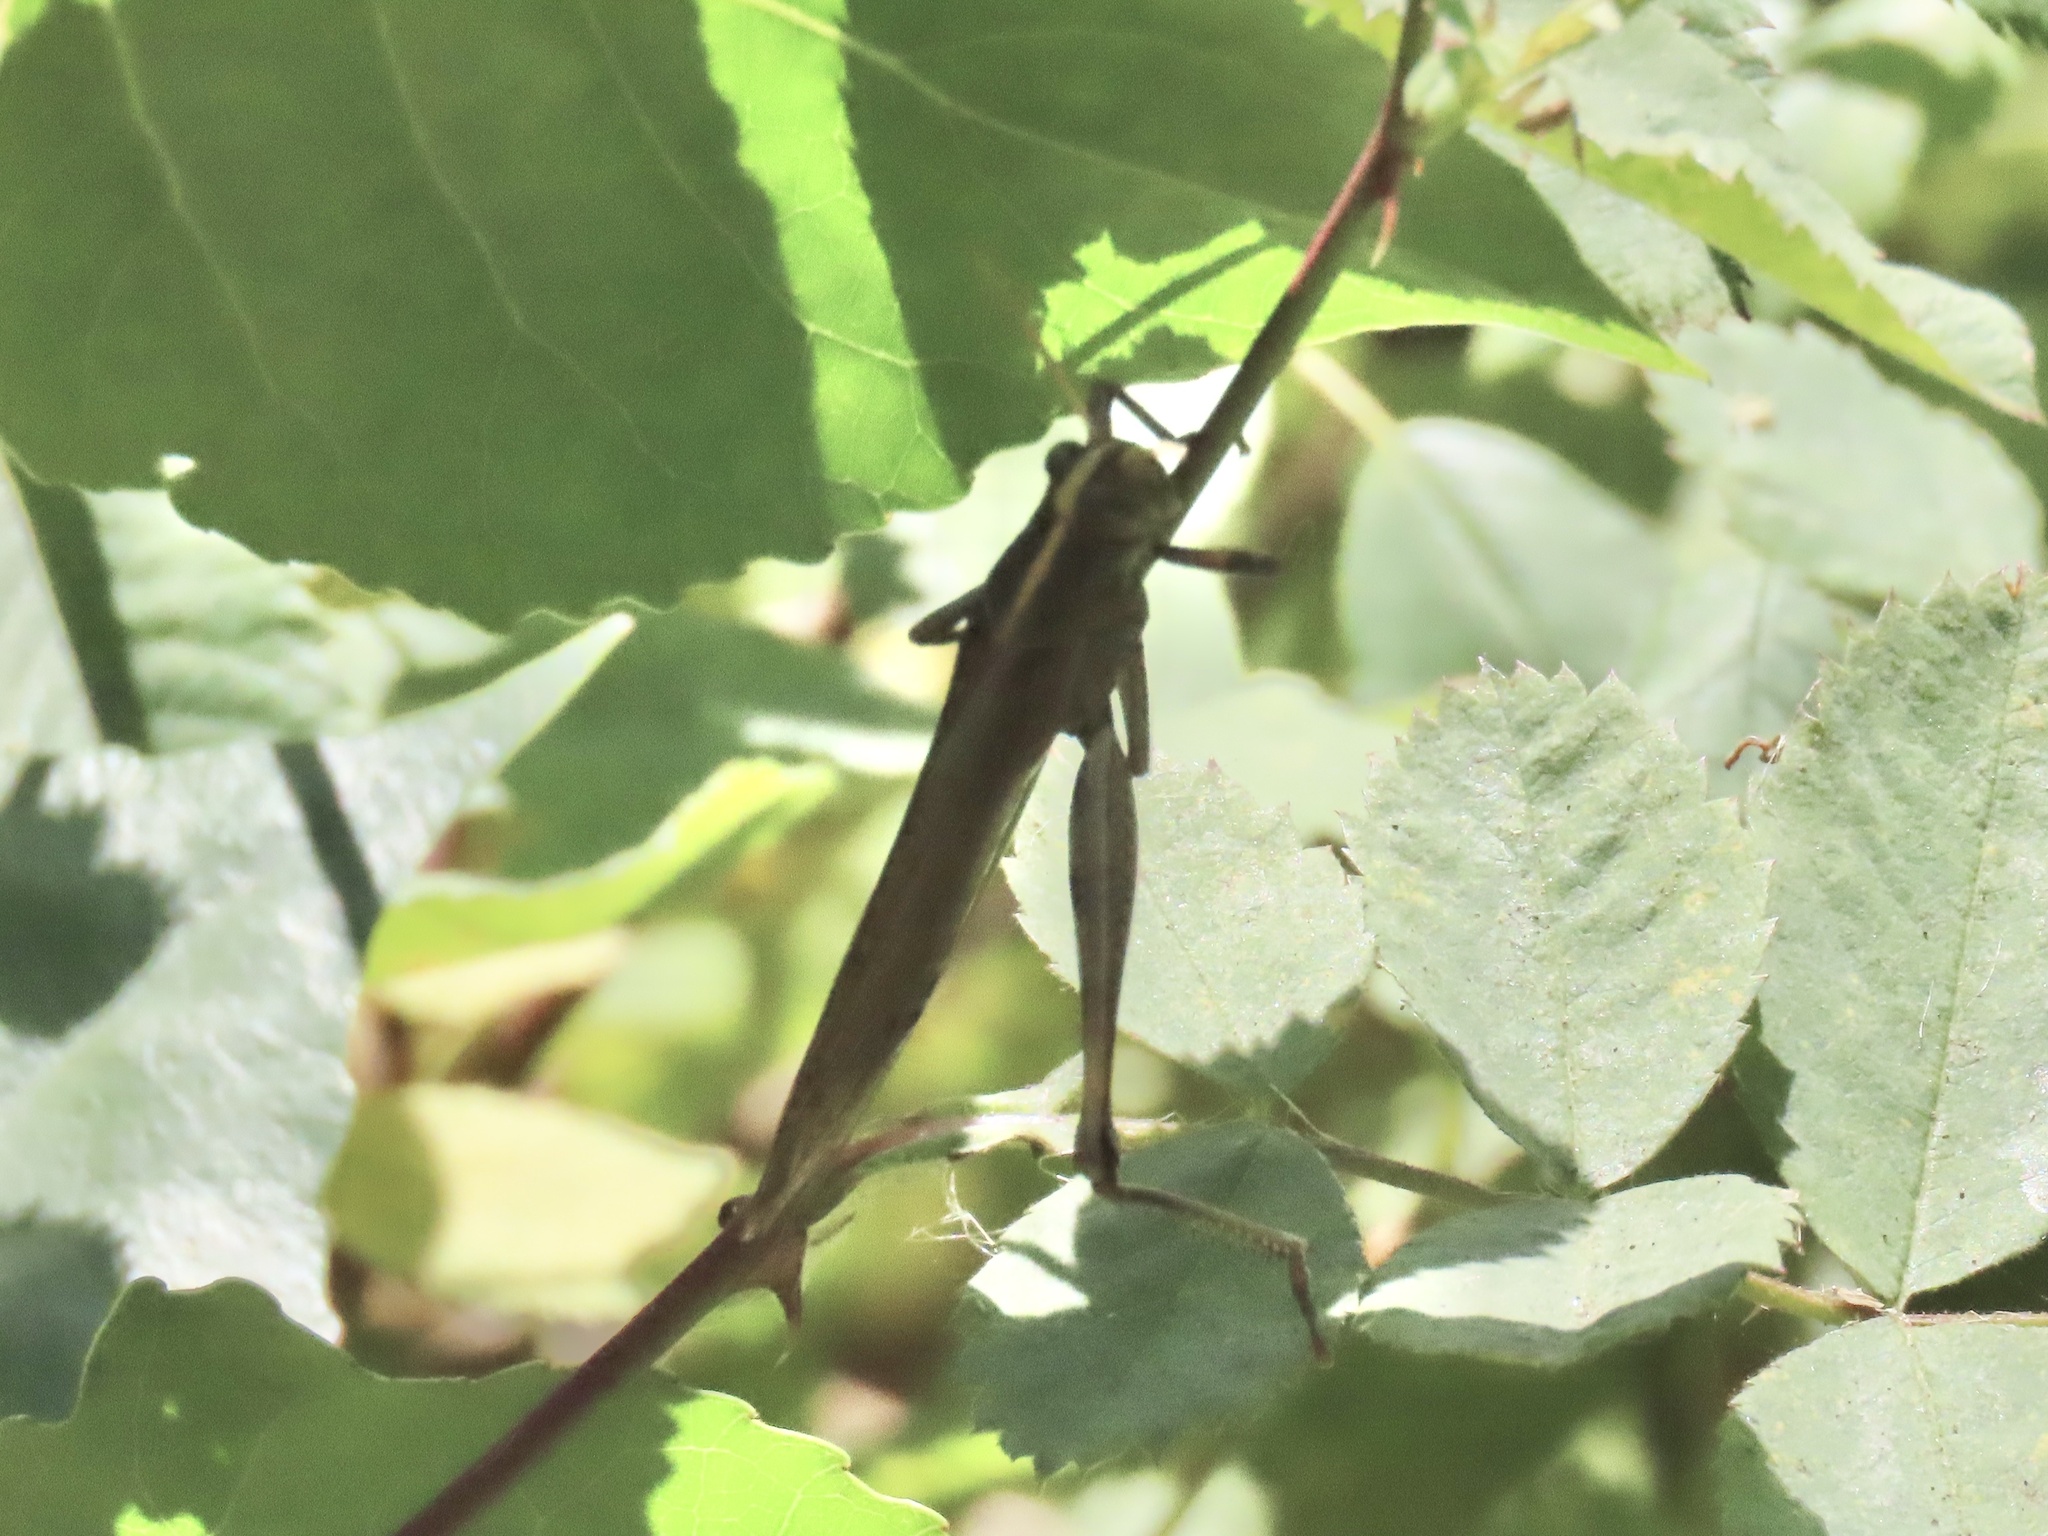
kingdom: Animalia
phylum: Arthropoda
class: Insecta
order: Orthoptera
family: Acrididae
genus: Schistocerca
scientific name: Schistocerca nitens
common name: Vagrant grasshopper
